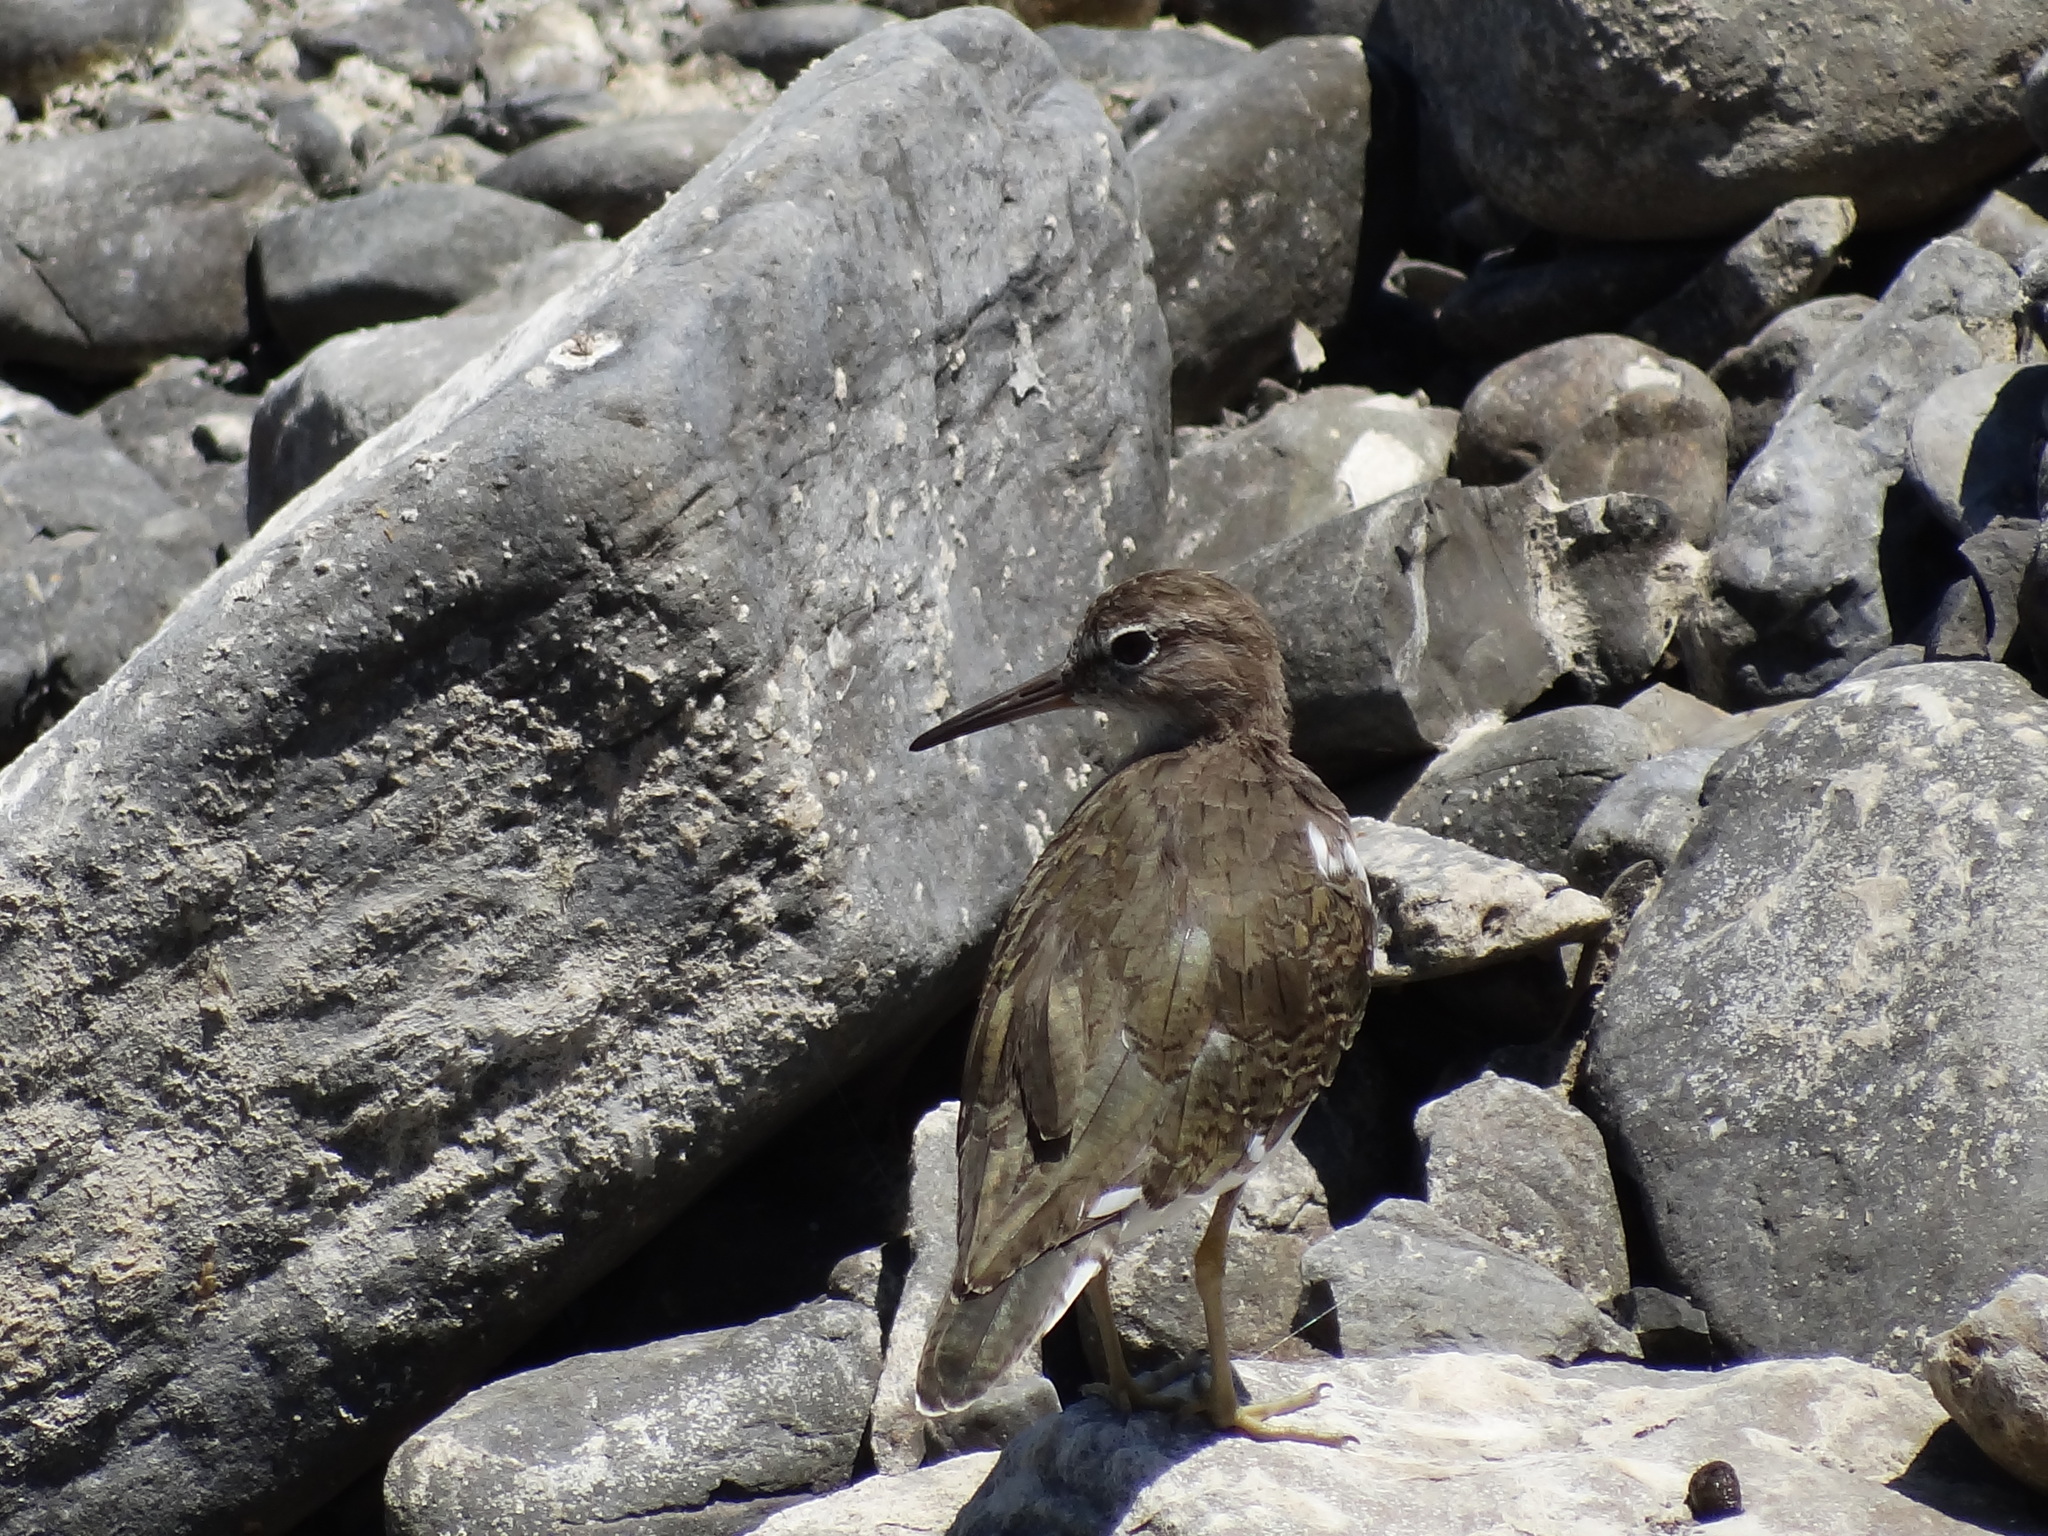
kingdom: Animalia
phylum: Chordata
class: Aves
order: Charadriiformes
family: Scolopacidae
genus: Actitis
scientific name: Actitis hypoleucos
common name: Common sandpiper
